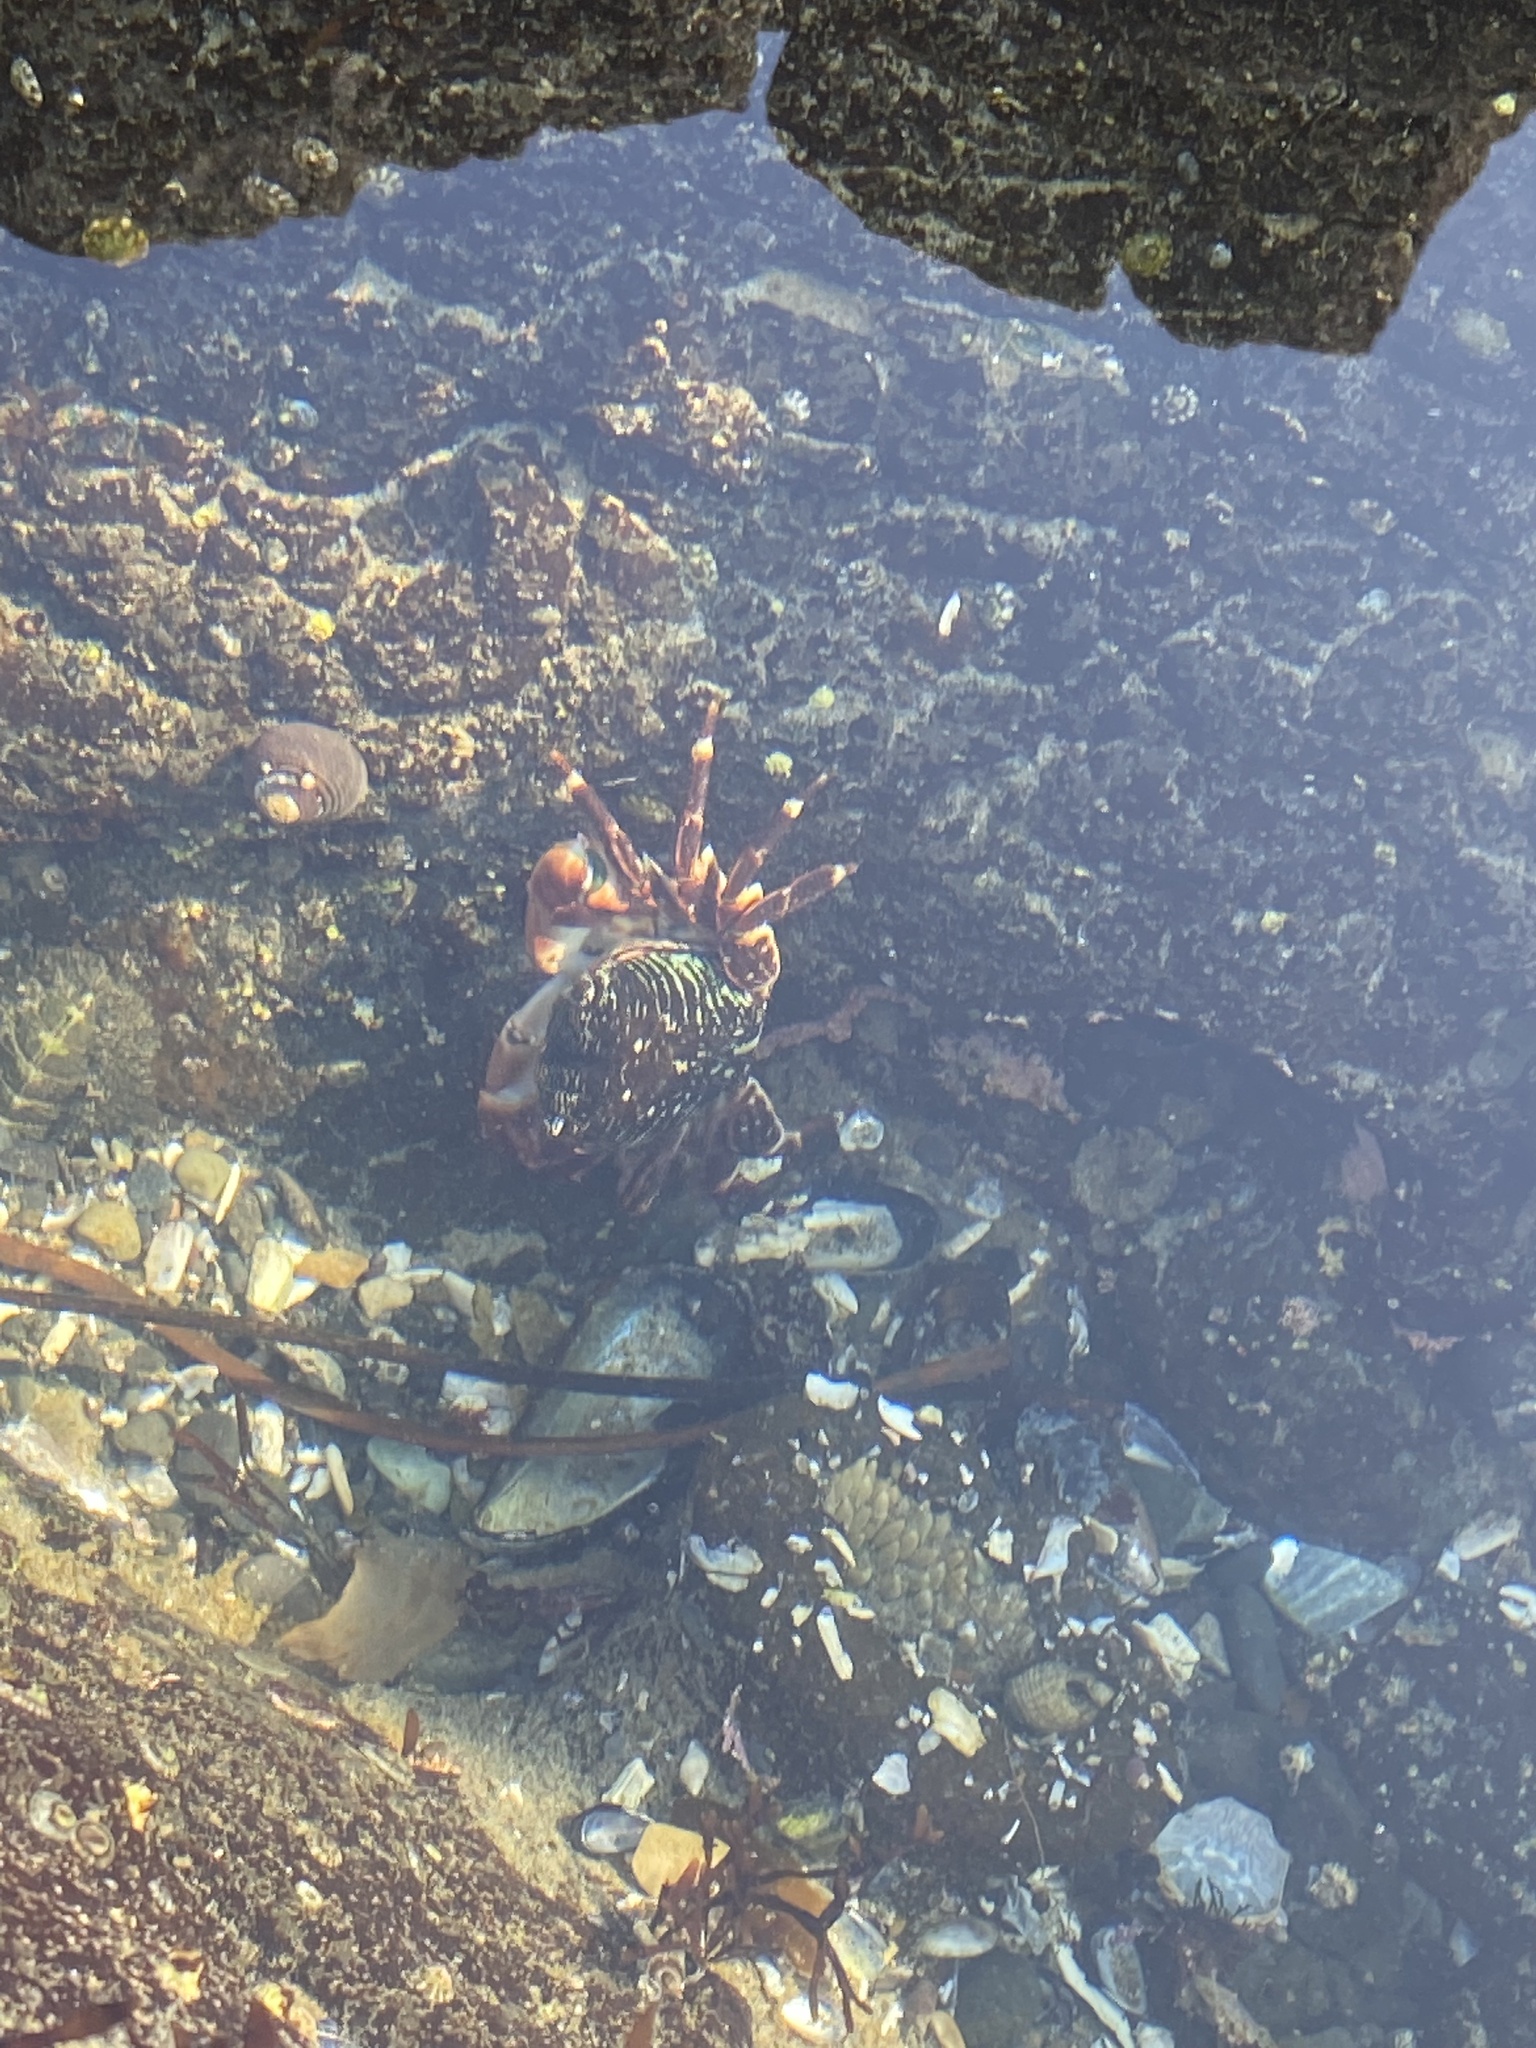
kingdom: Animalia
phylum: Arthropoda
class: Malacostraca
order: Decapoda
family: Grapsidae
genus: Pachygrapsus
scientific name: Pachygrapsus crassipes
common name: Striped shore crab
